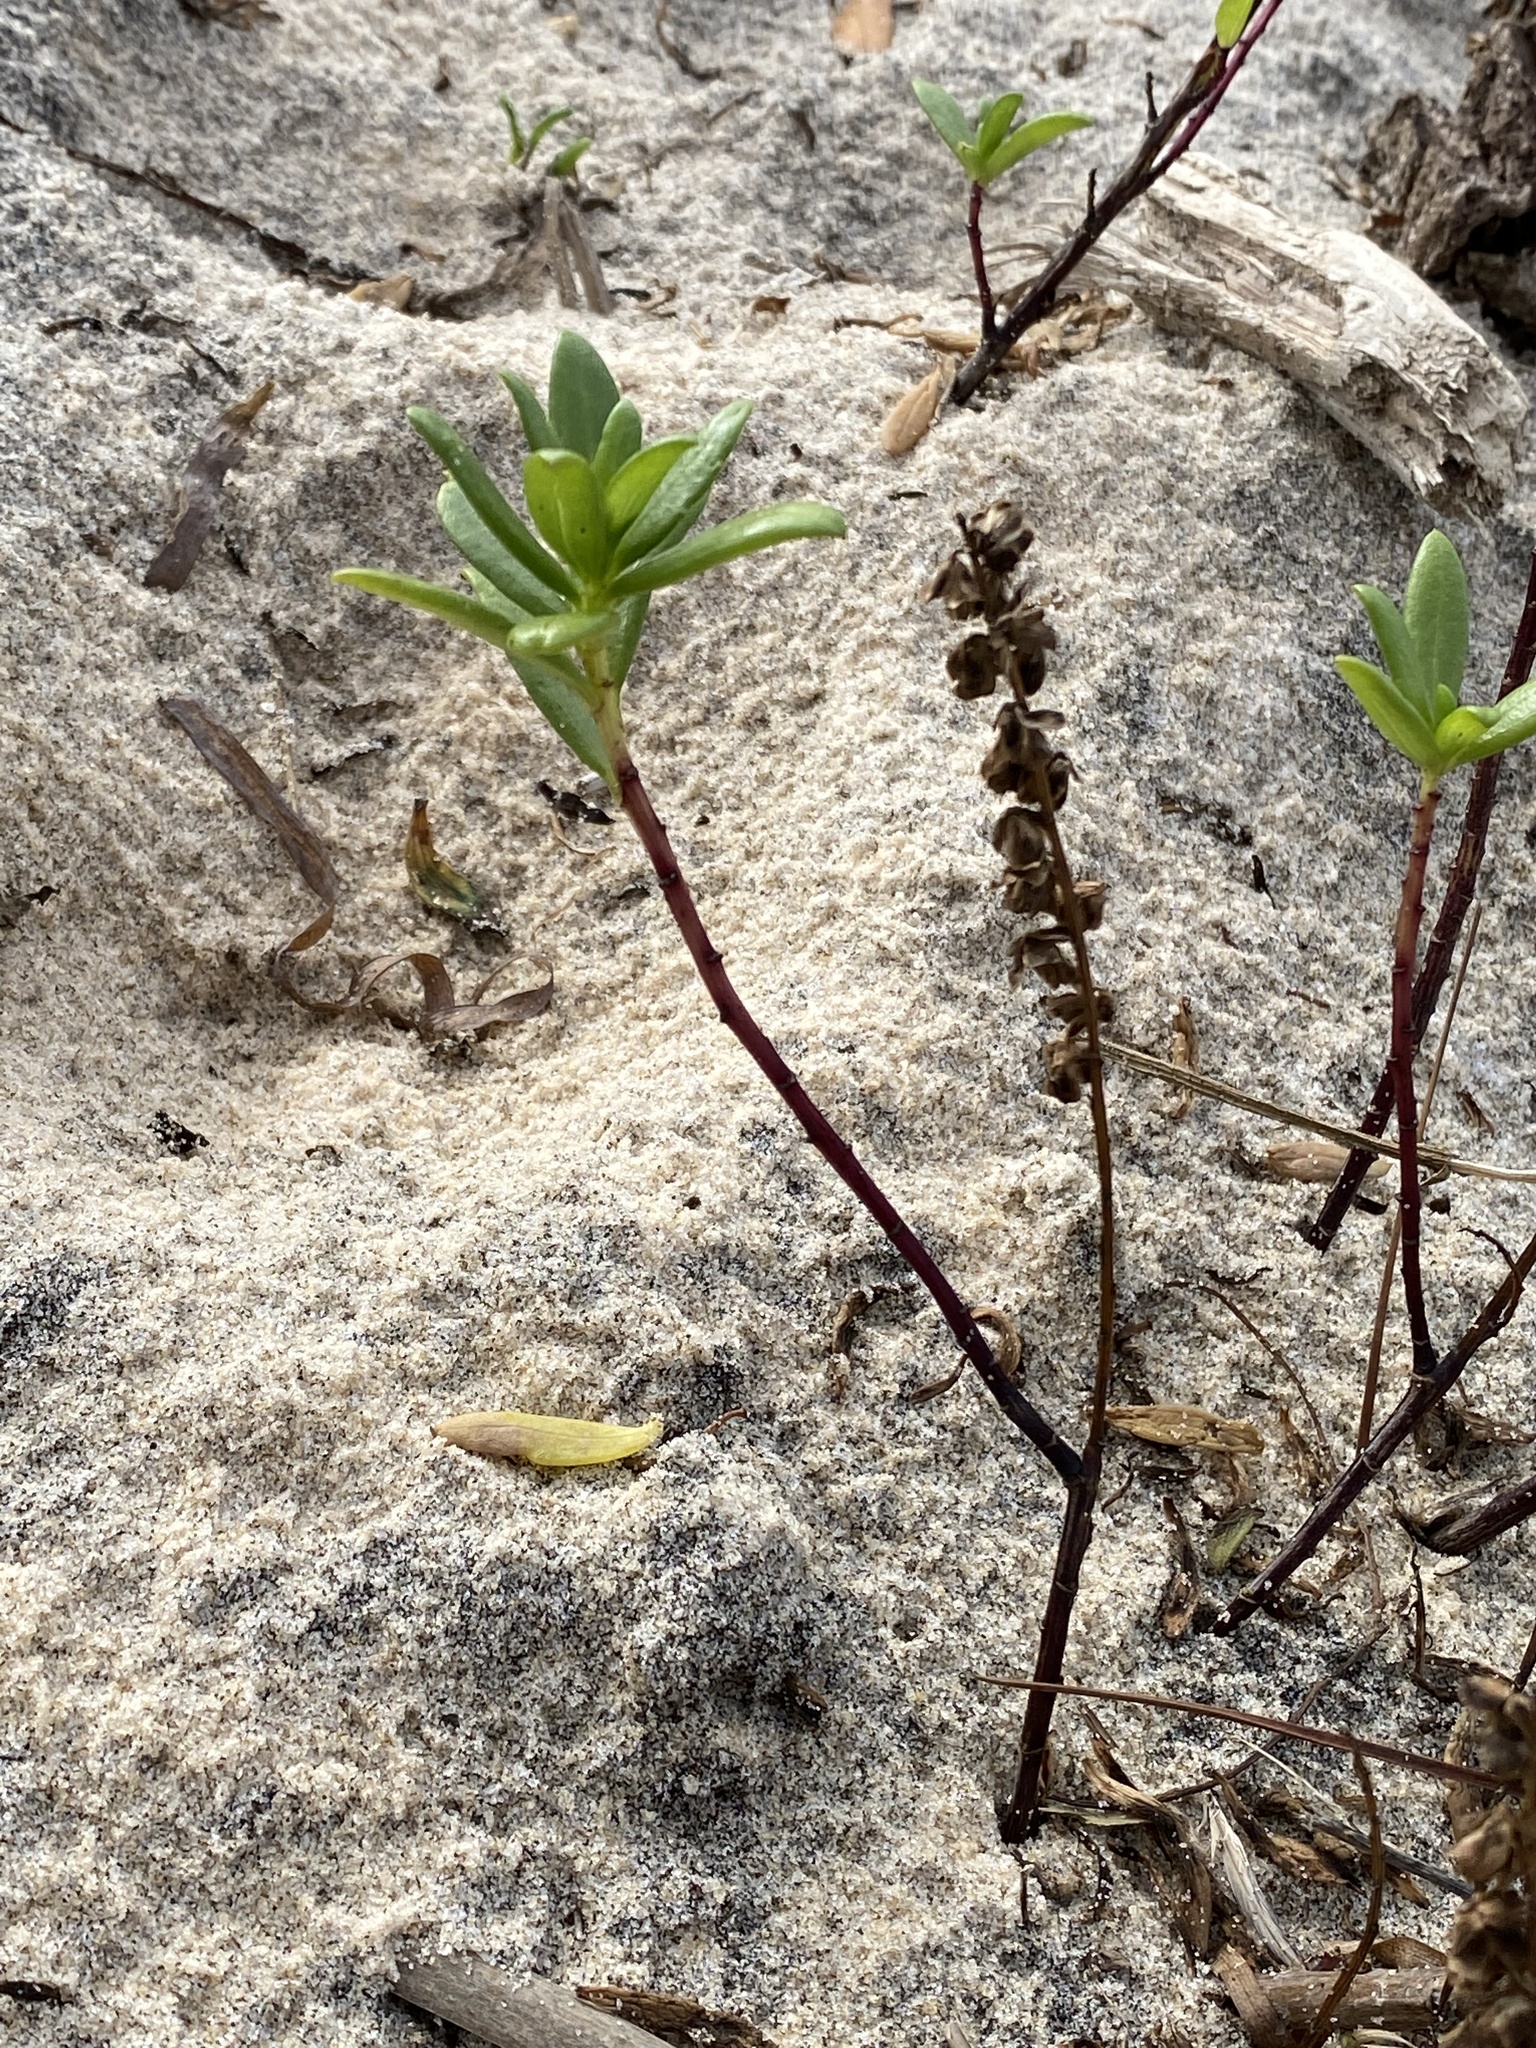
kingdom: Plantae
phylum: Tracheophyta
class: Magnoliopsida
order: Asterales
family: Asteraceae
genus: Iva
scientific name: Iva imbricata
